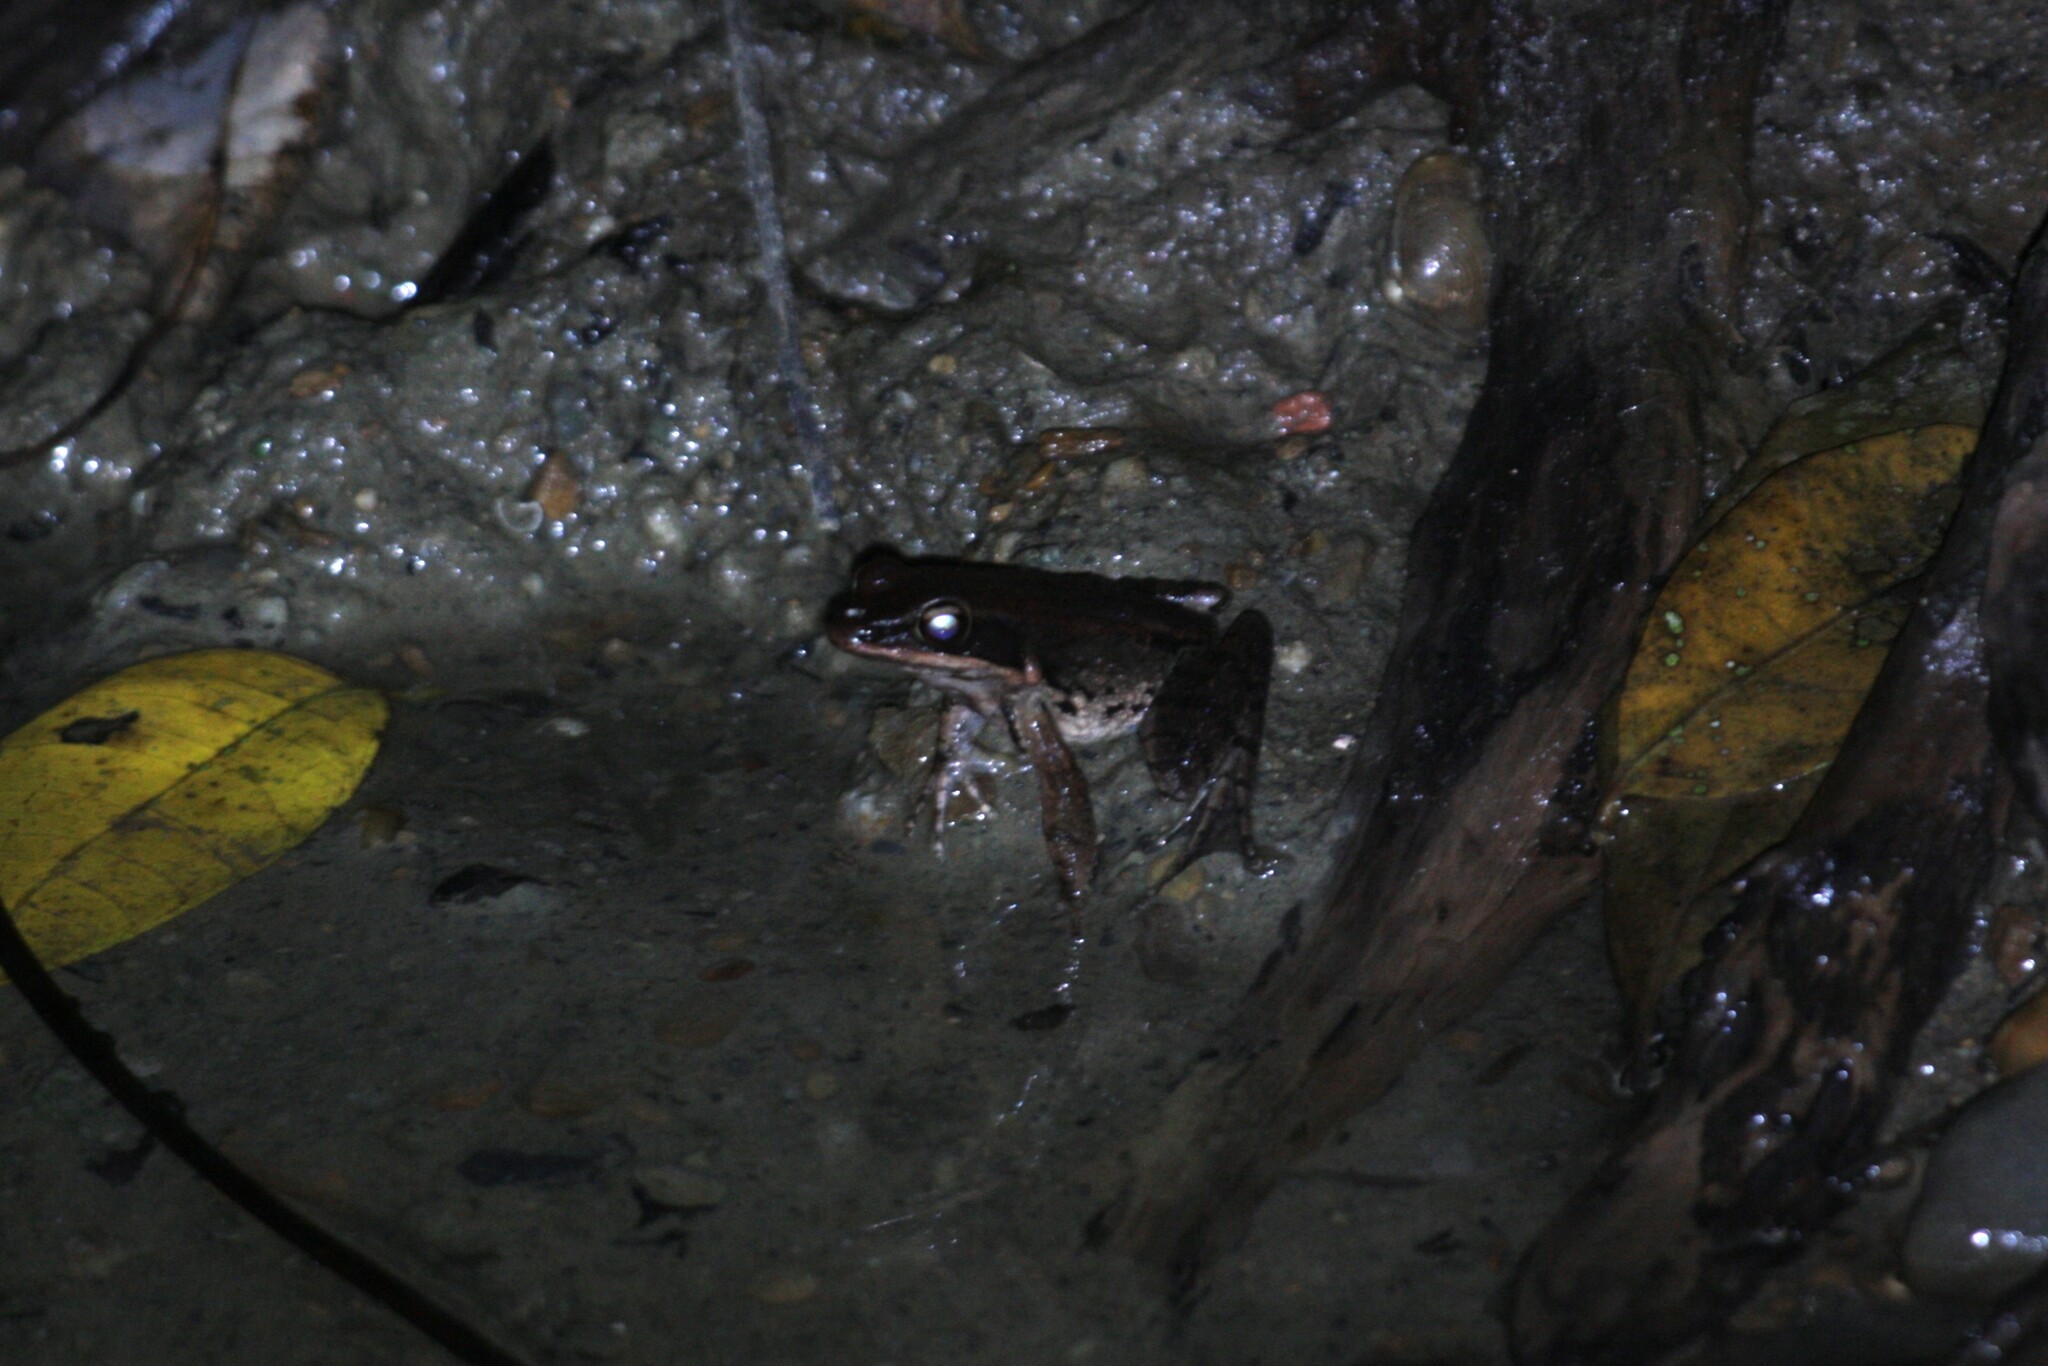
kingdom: Animalia
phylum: Chordata
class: Amphibia
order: Anura
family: Ranidae
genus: Hylarana
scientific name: Hylarana latouchii
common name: Broad-folded frog
